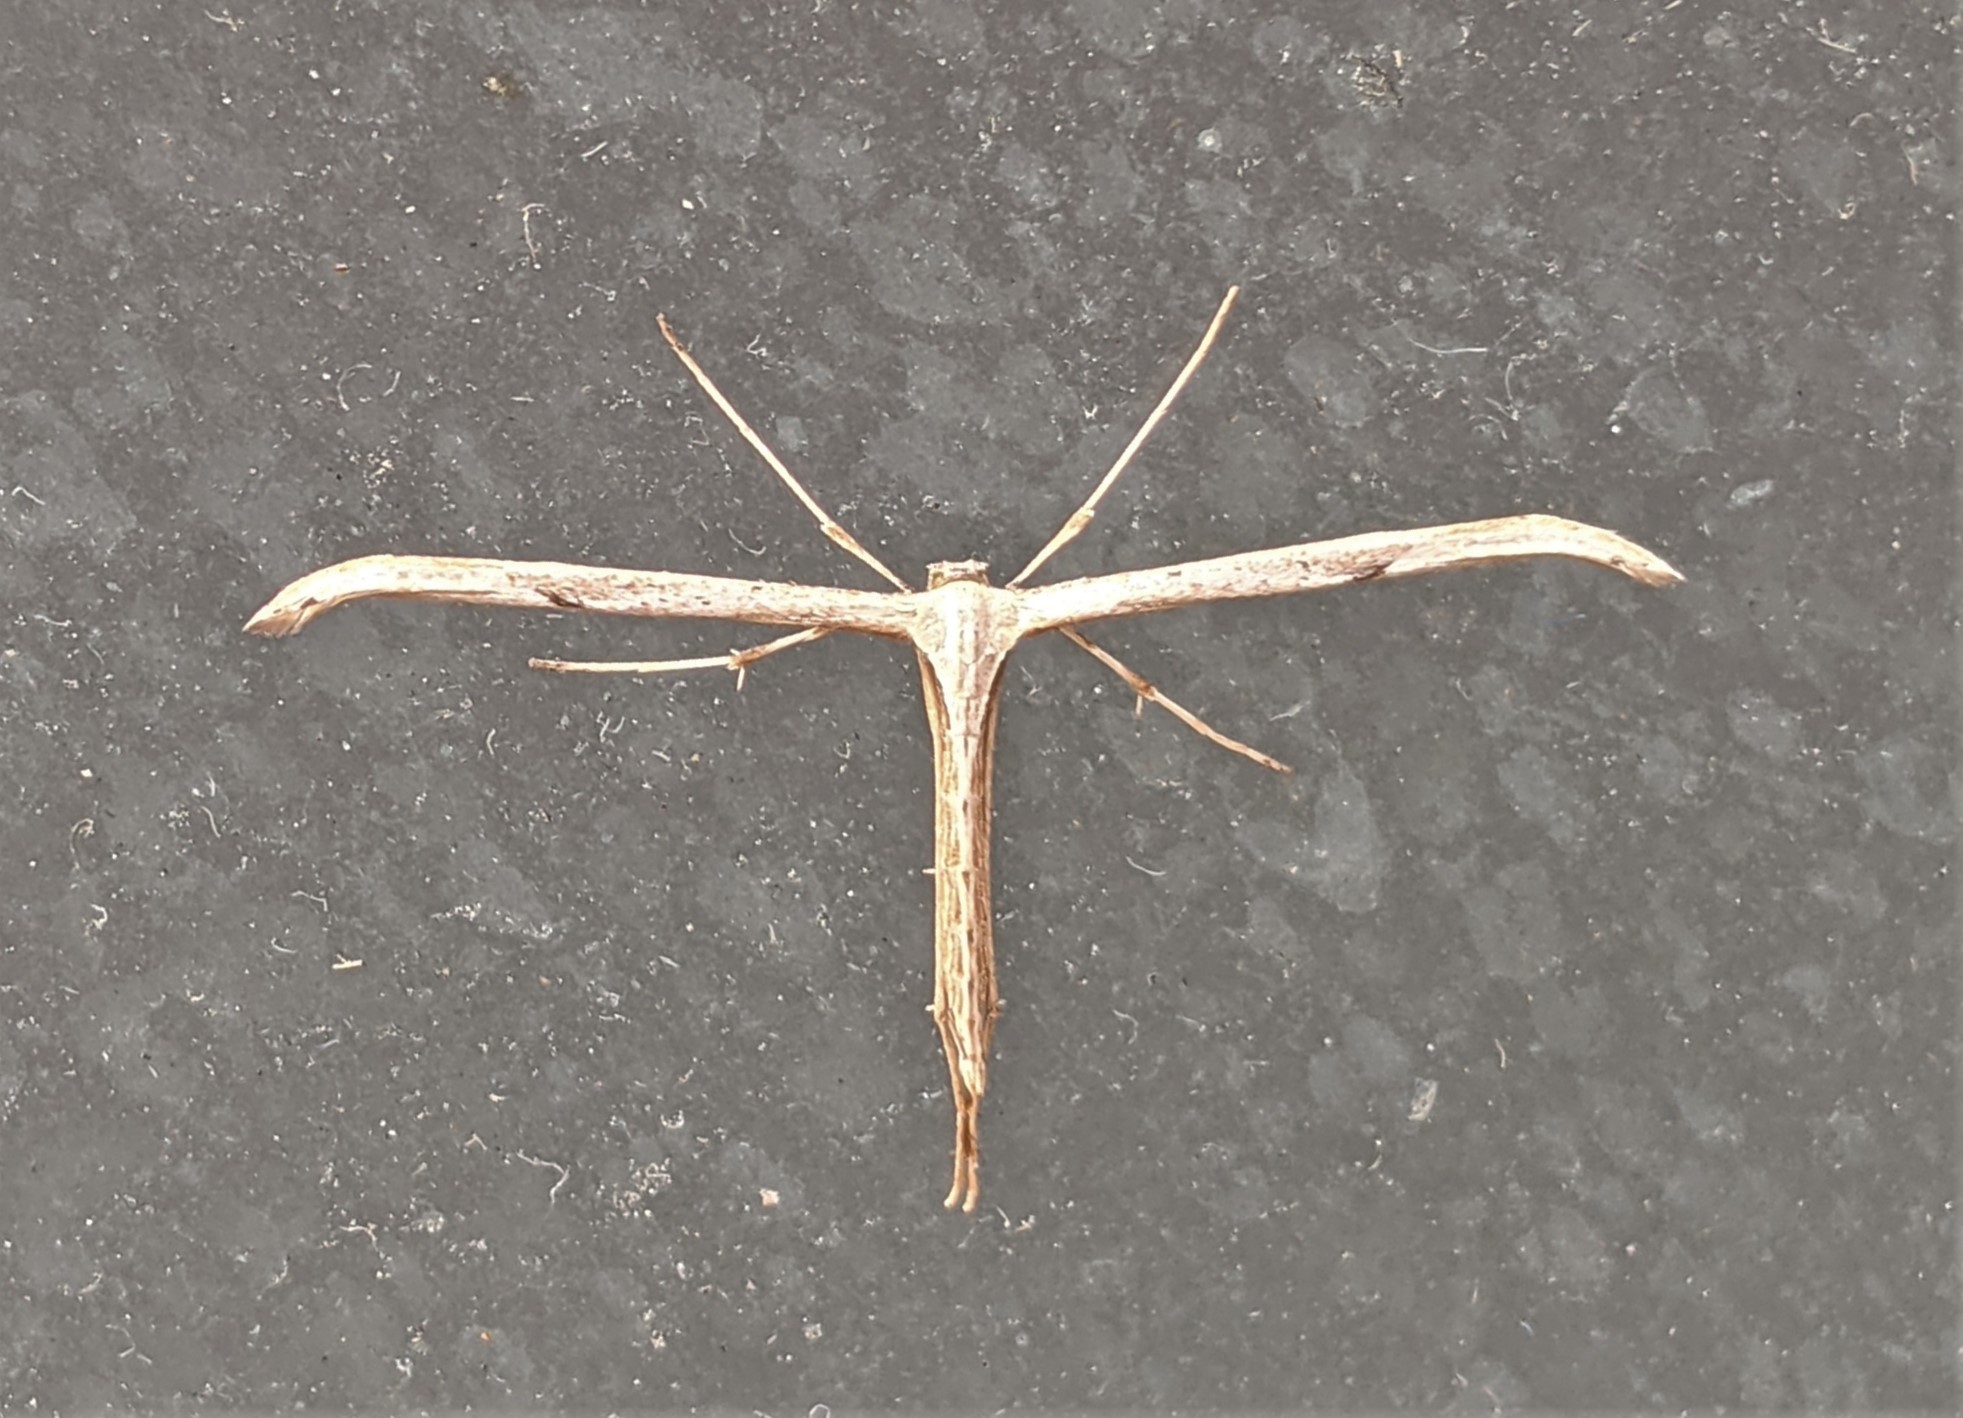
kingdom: Animalia
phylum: Arthropoda
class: Insecta
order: Lepidoptera
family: Pterophoridae
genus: Emmelina
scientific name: Emmelina monodactyla
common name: Common plume
